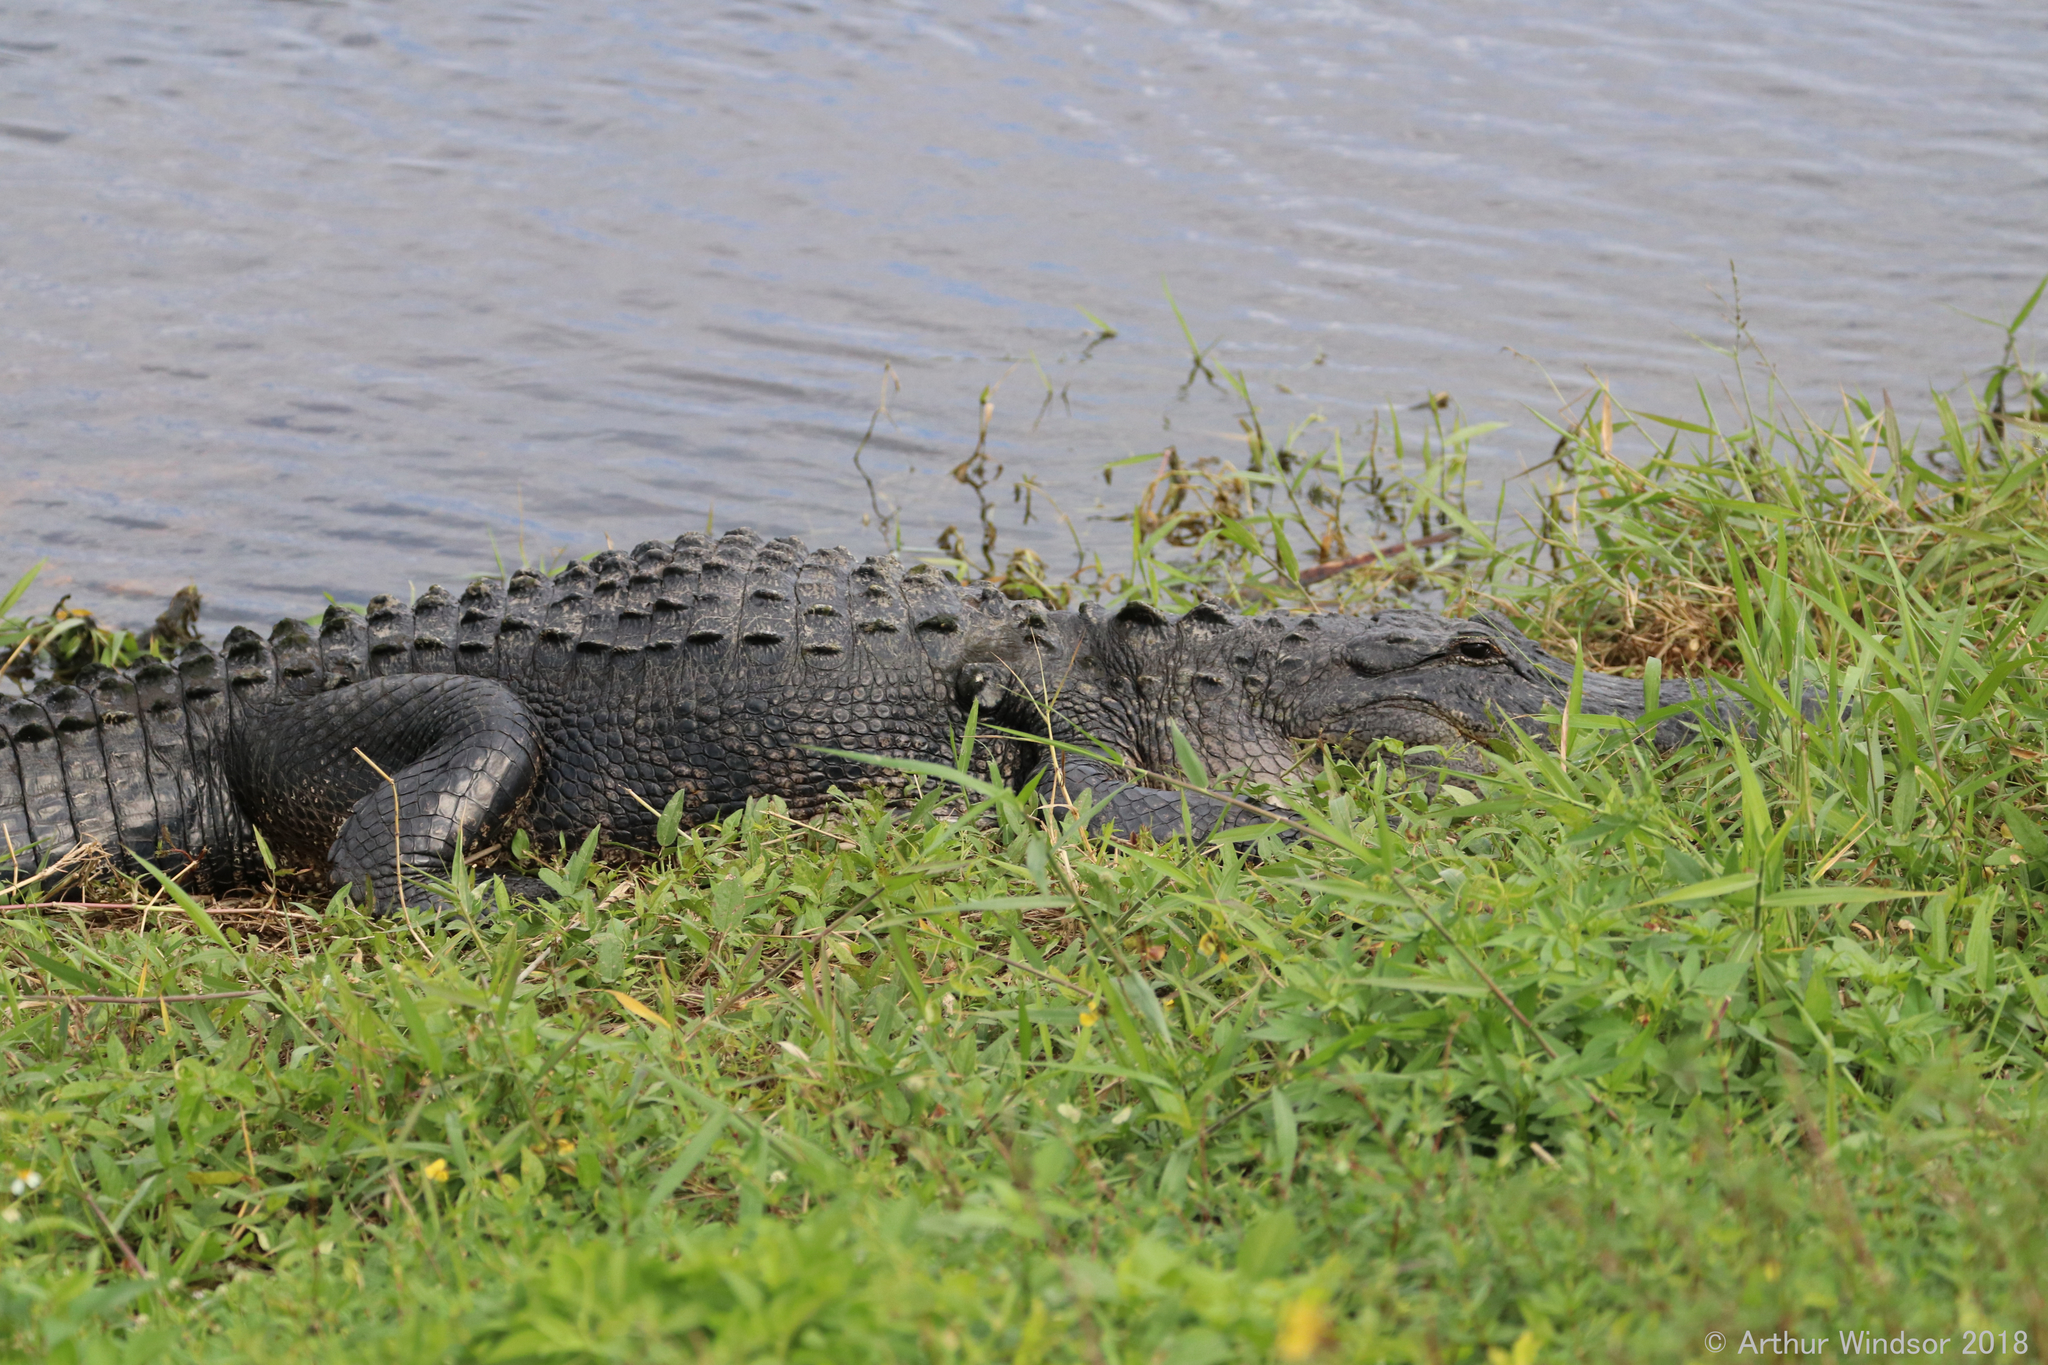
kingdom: Animalia
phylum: Chordata
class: Crocodylia
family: Alligatoridae
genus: Alligator
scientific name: Alligator mississippiensis
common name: American alligator
